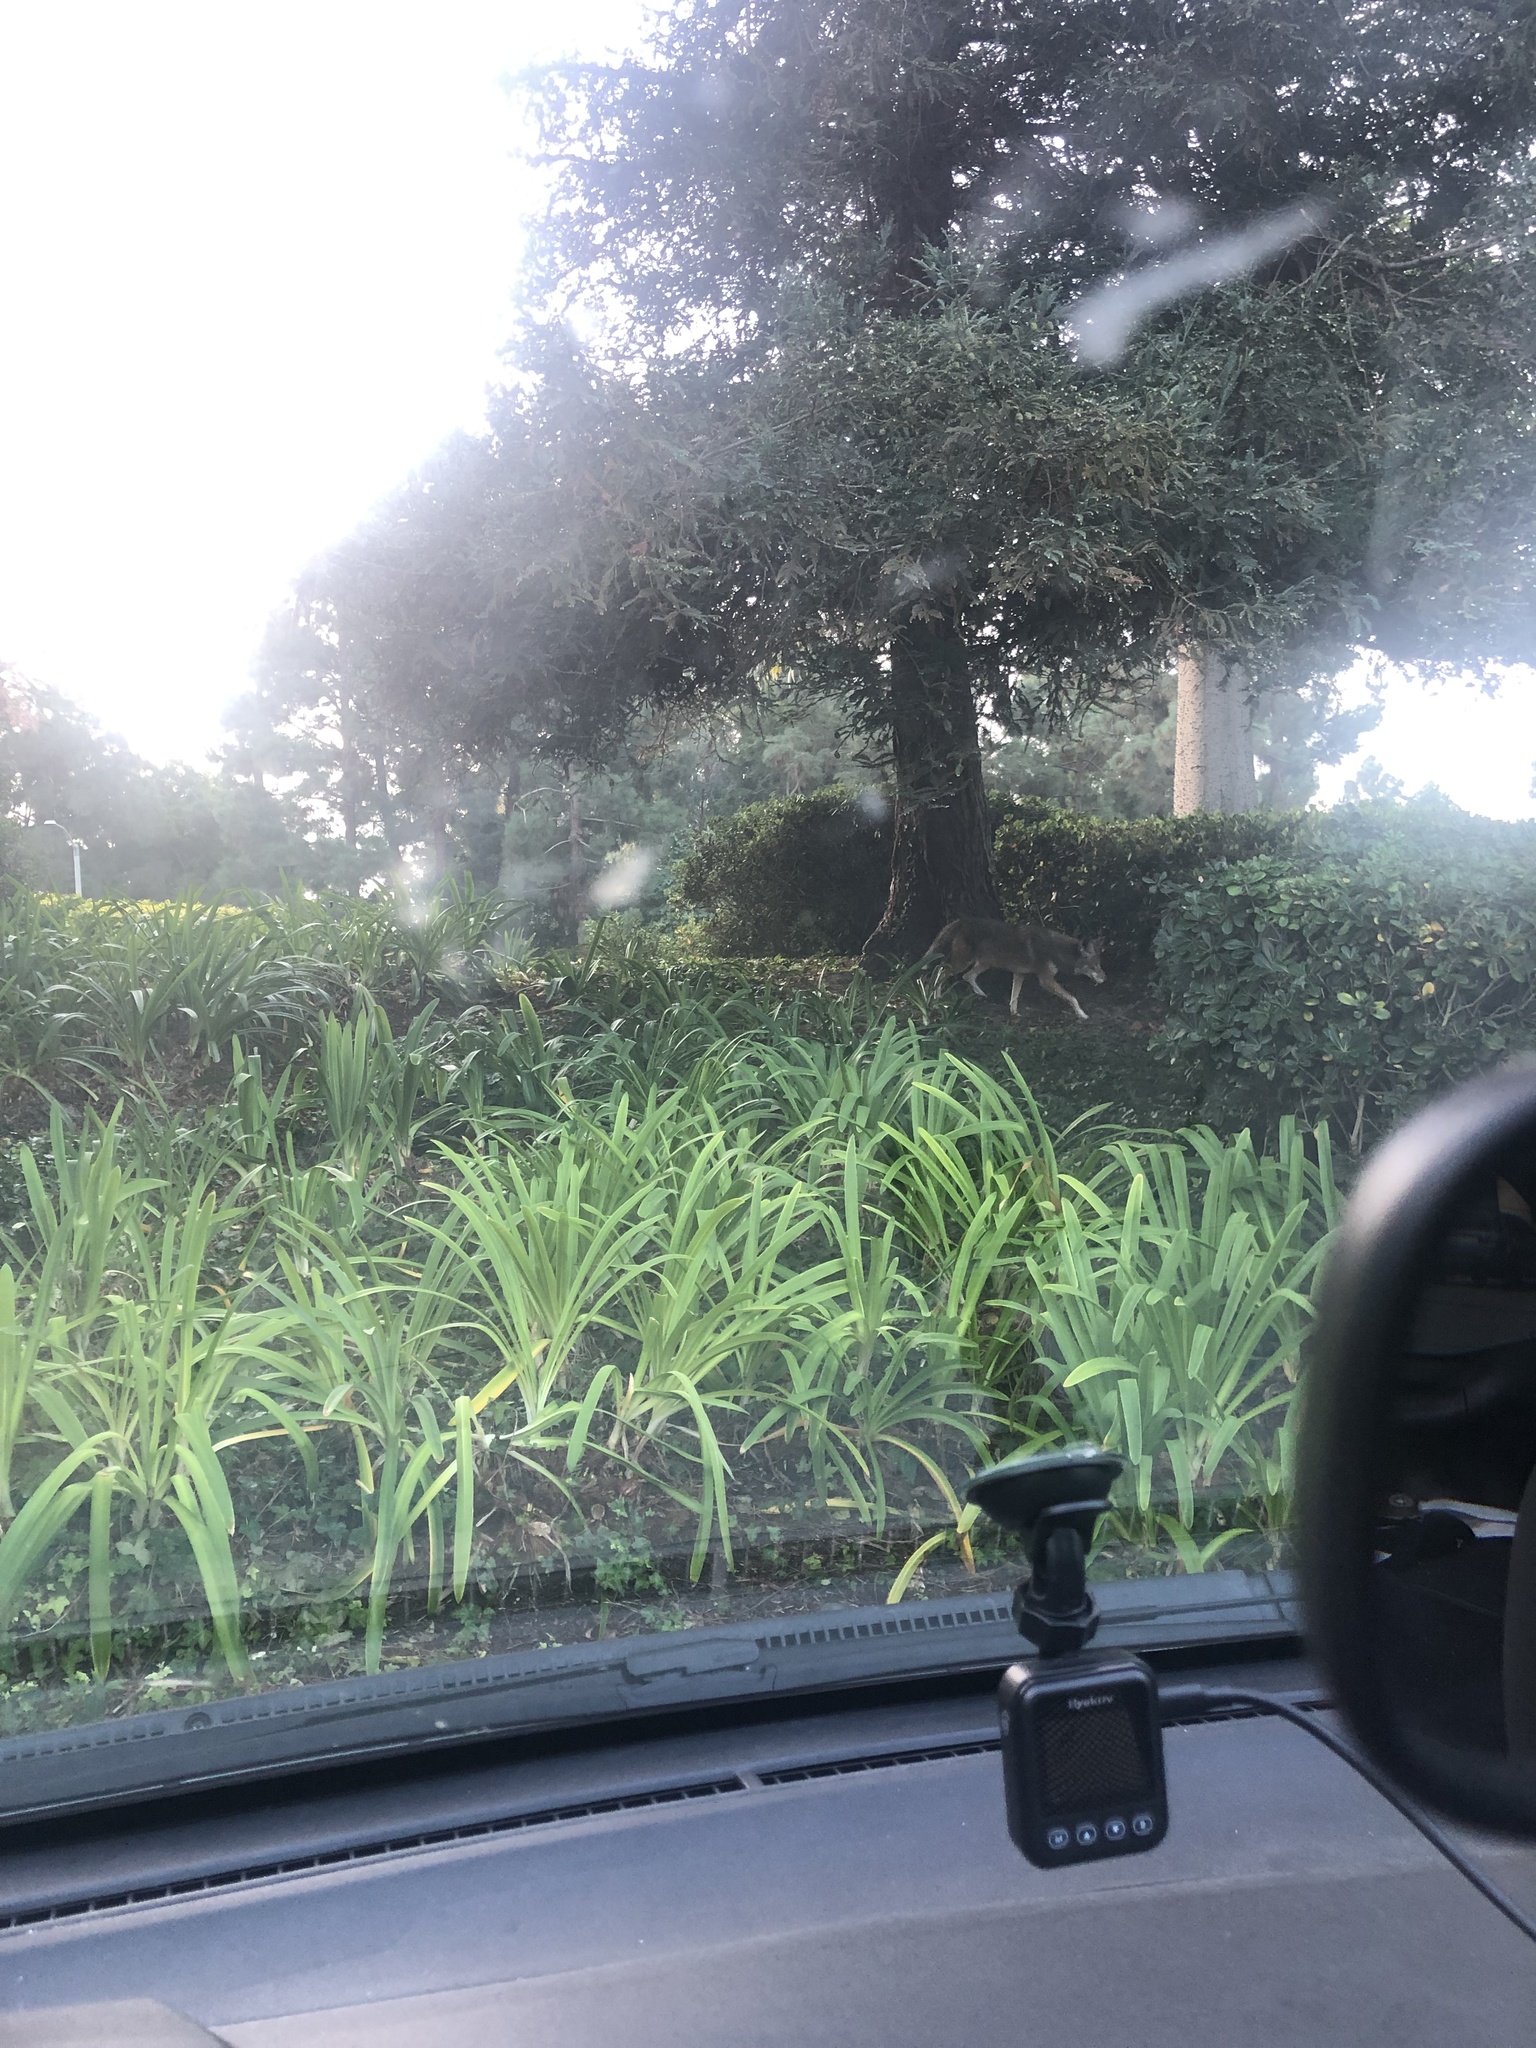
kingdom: Animalia
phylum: Chordata
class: Mammalia
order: Carnivora
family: Canidae
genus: Canis
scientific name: Canis latrans
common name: Coyote
